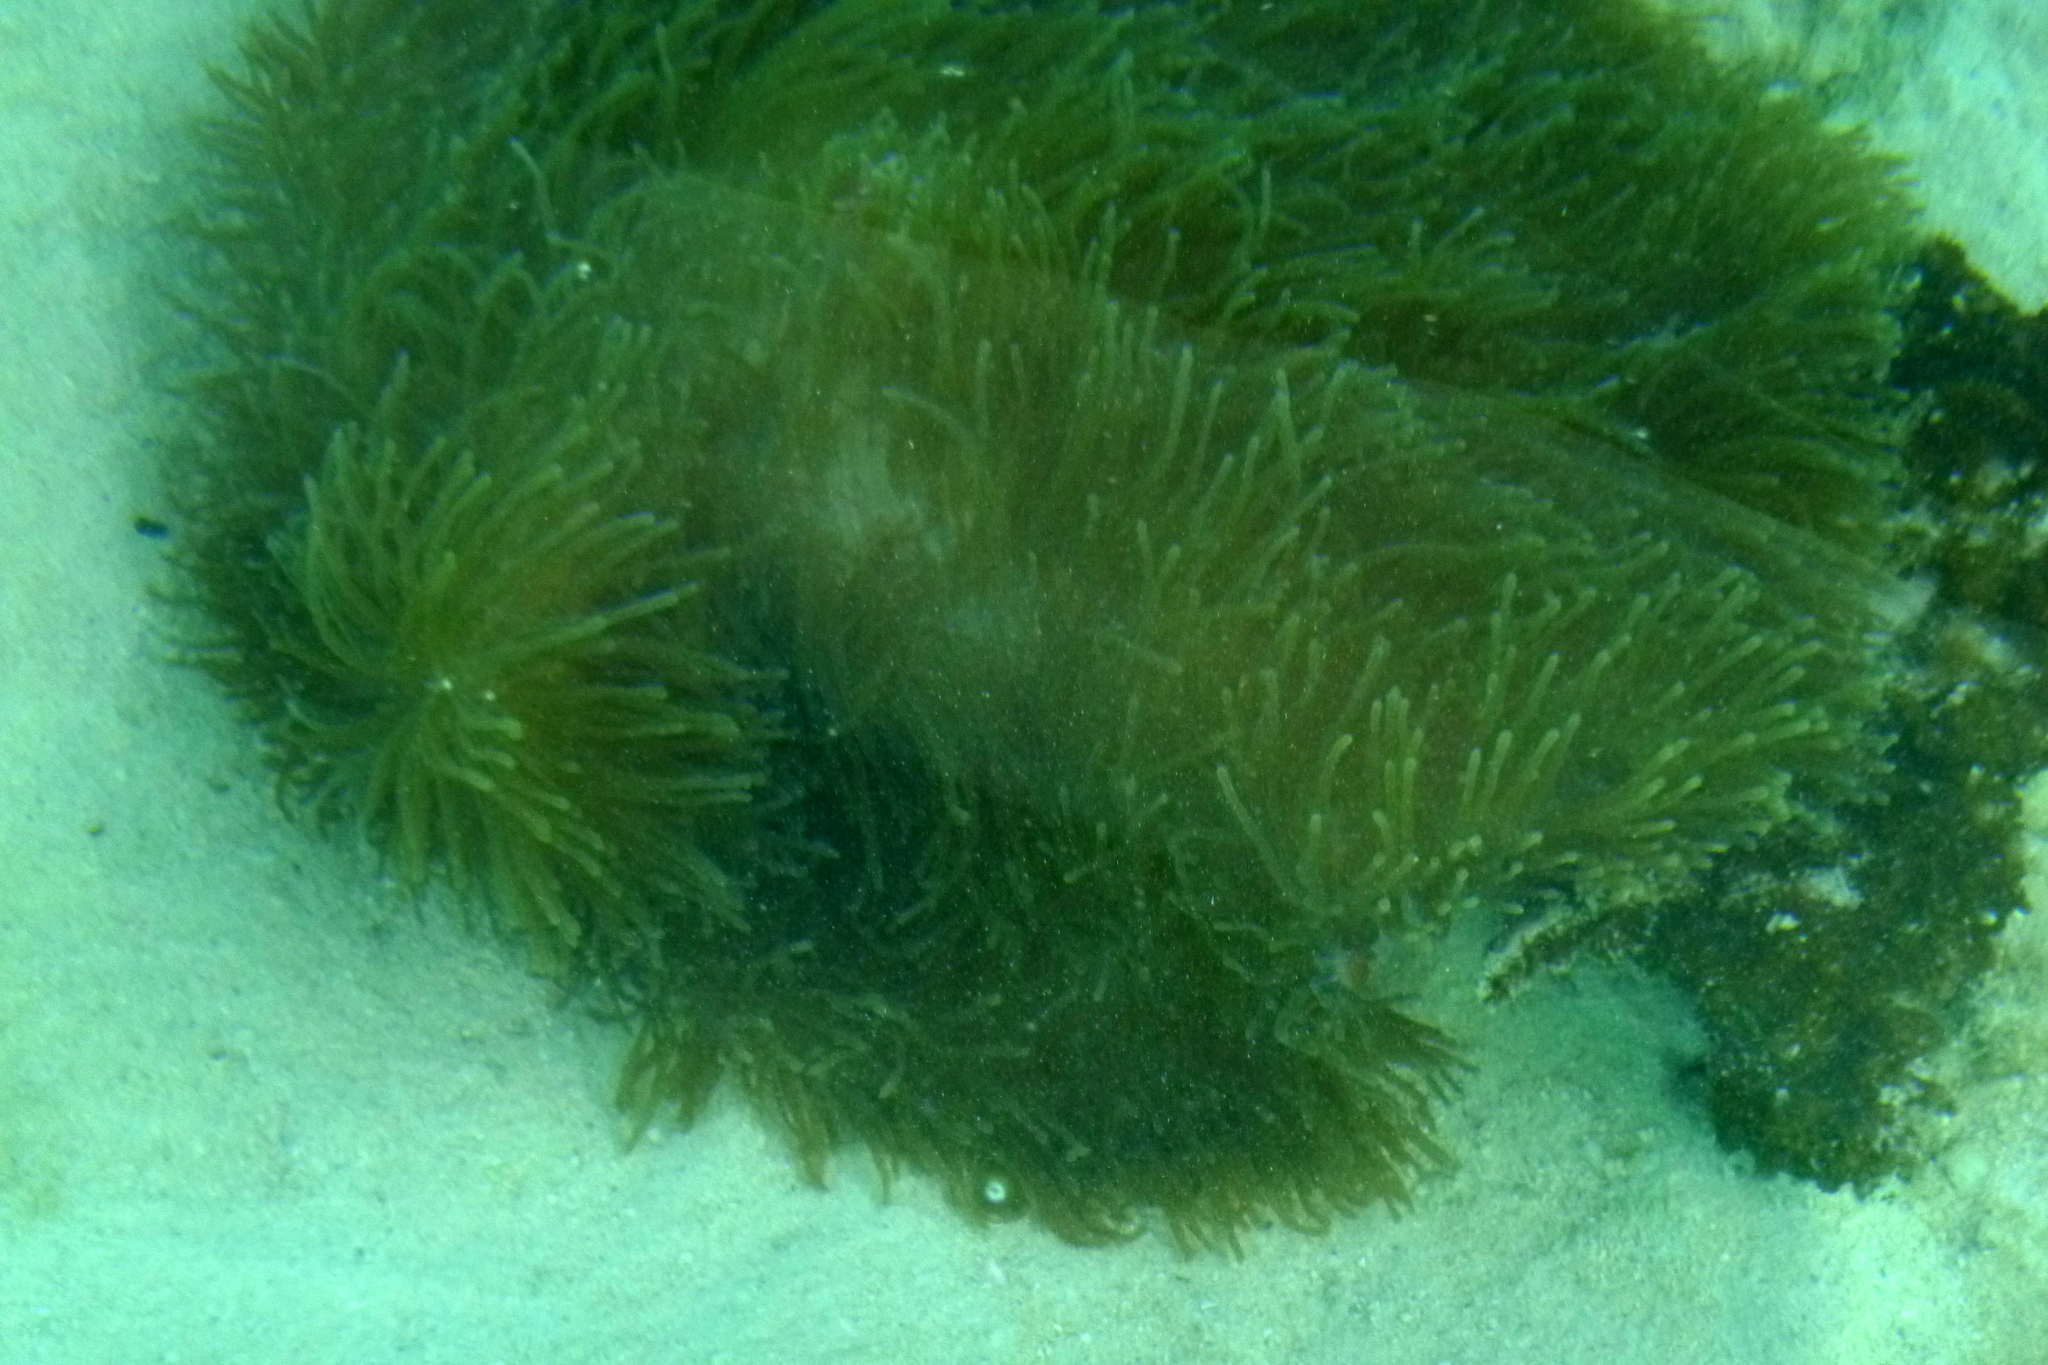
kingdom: Animalia
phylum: Cnidaria
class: Anthozoa
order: Actiniaria
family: Stichodactylidae
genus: Radianthus
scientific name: Radianthus magnifica
